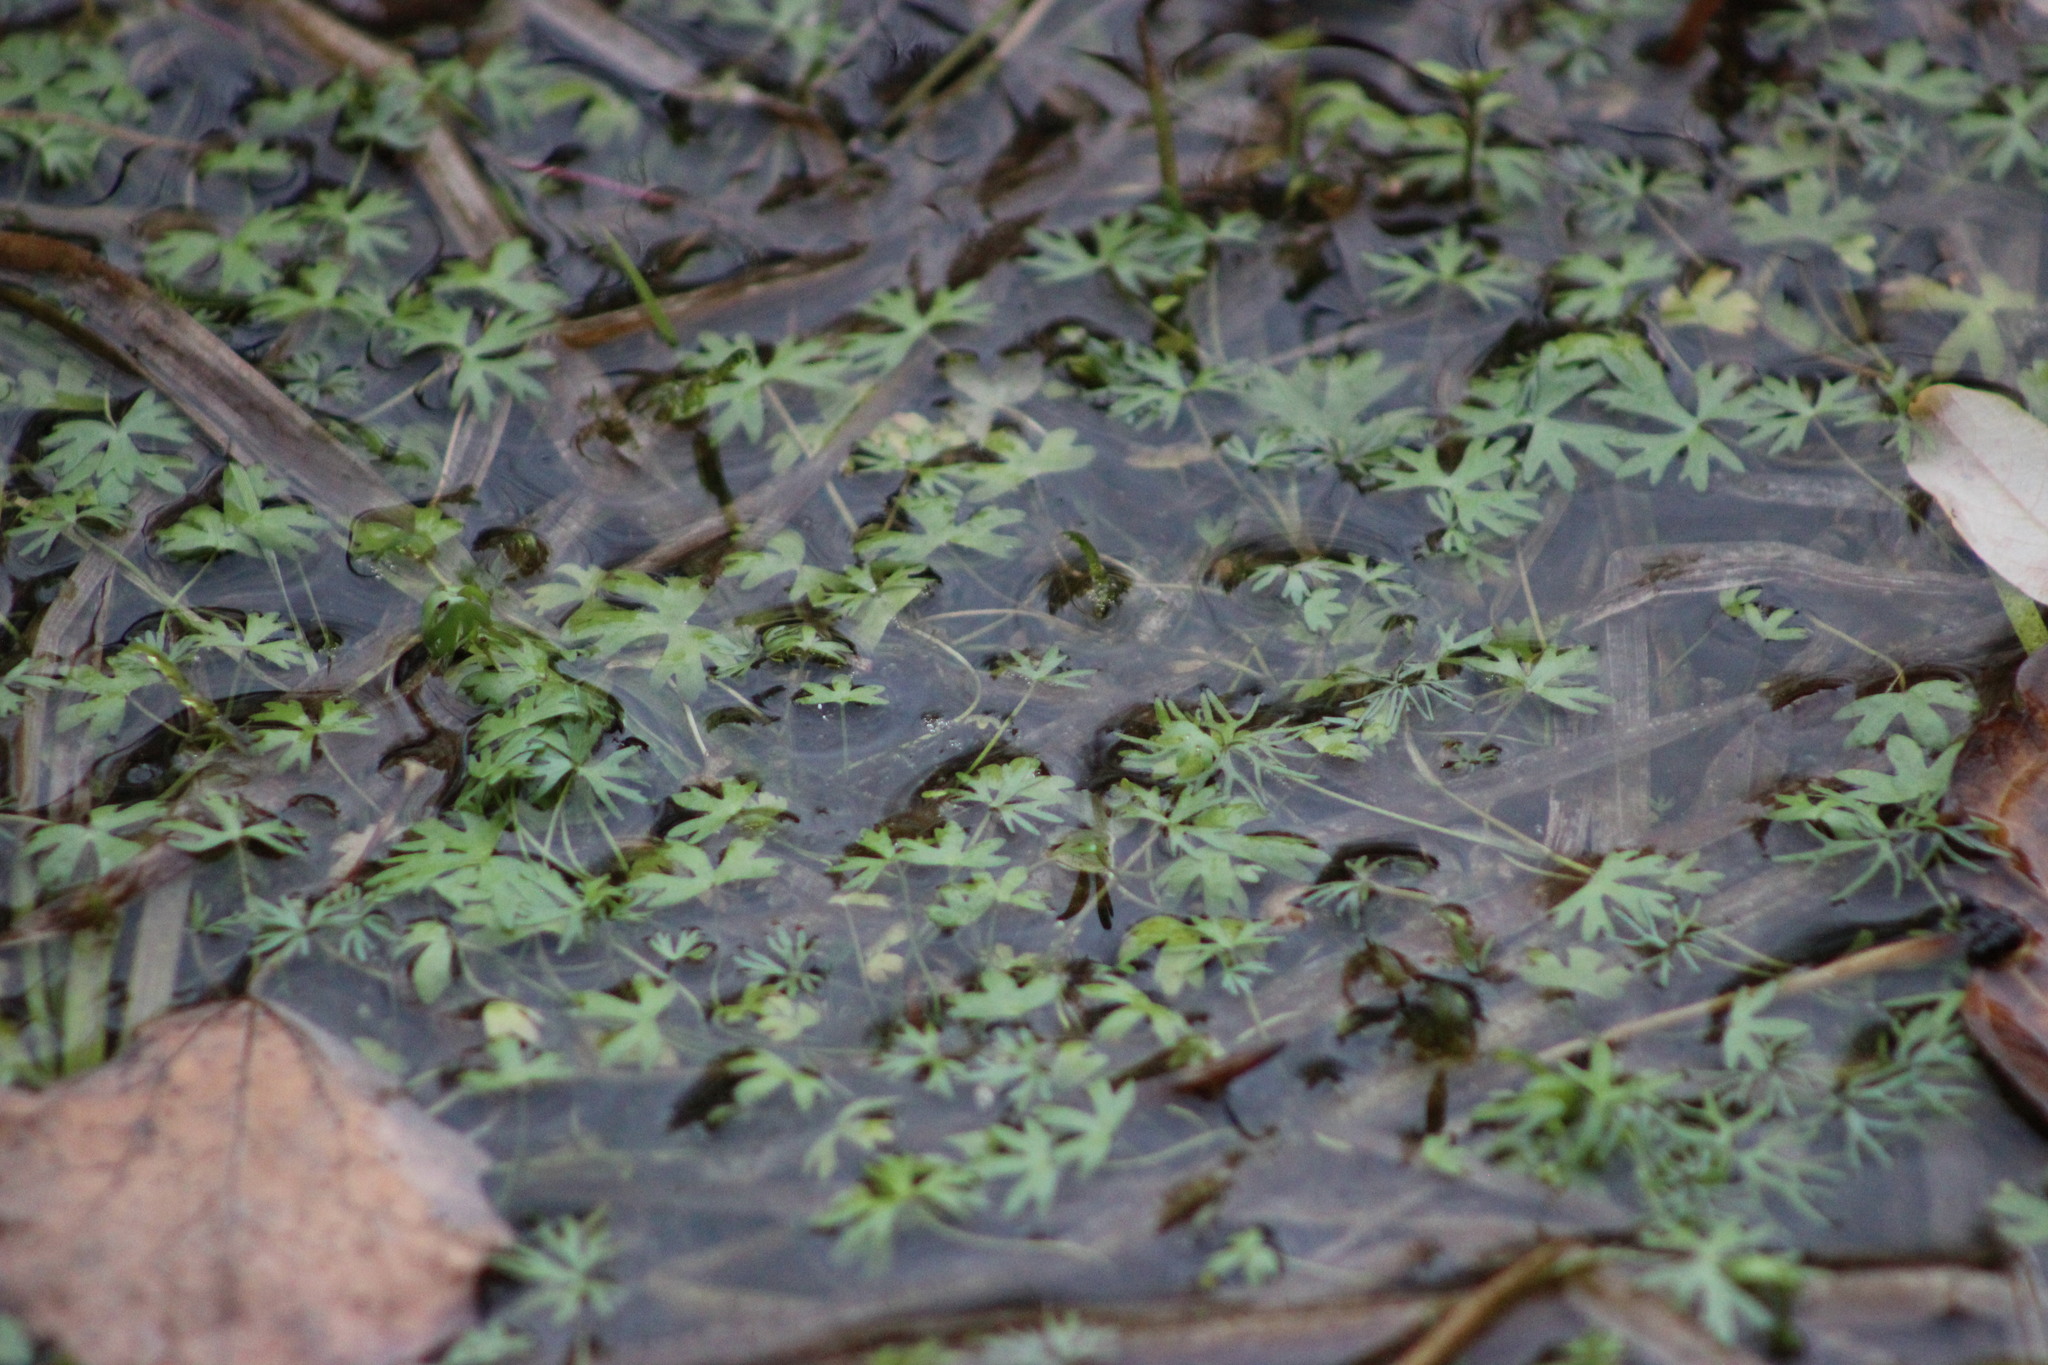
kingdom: Plantae
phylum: Tracheophyta
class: Magnoliopsida
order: Ranunculales
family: Ranunculaceae
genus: Ranunculus
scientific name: Ranunculus gmelinii
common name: Gmelin's buttercup
